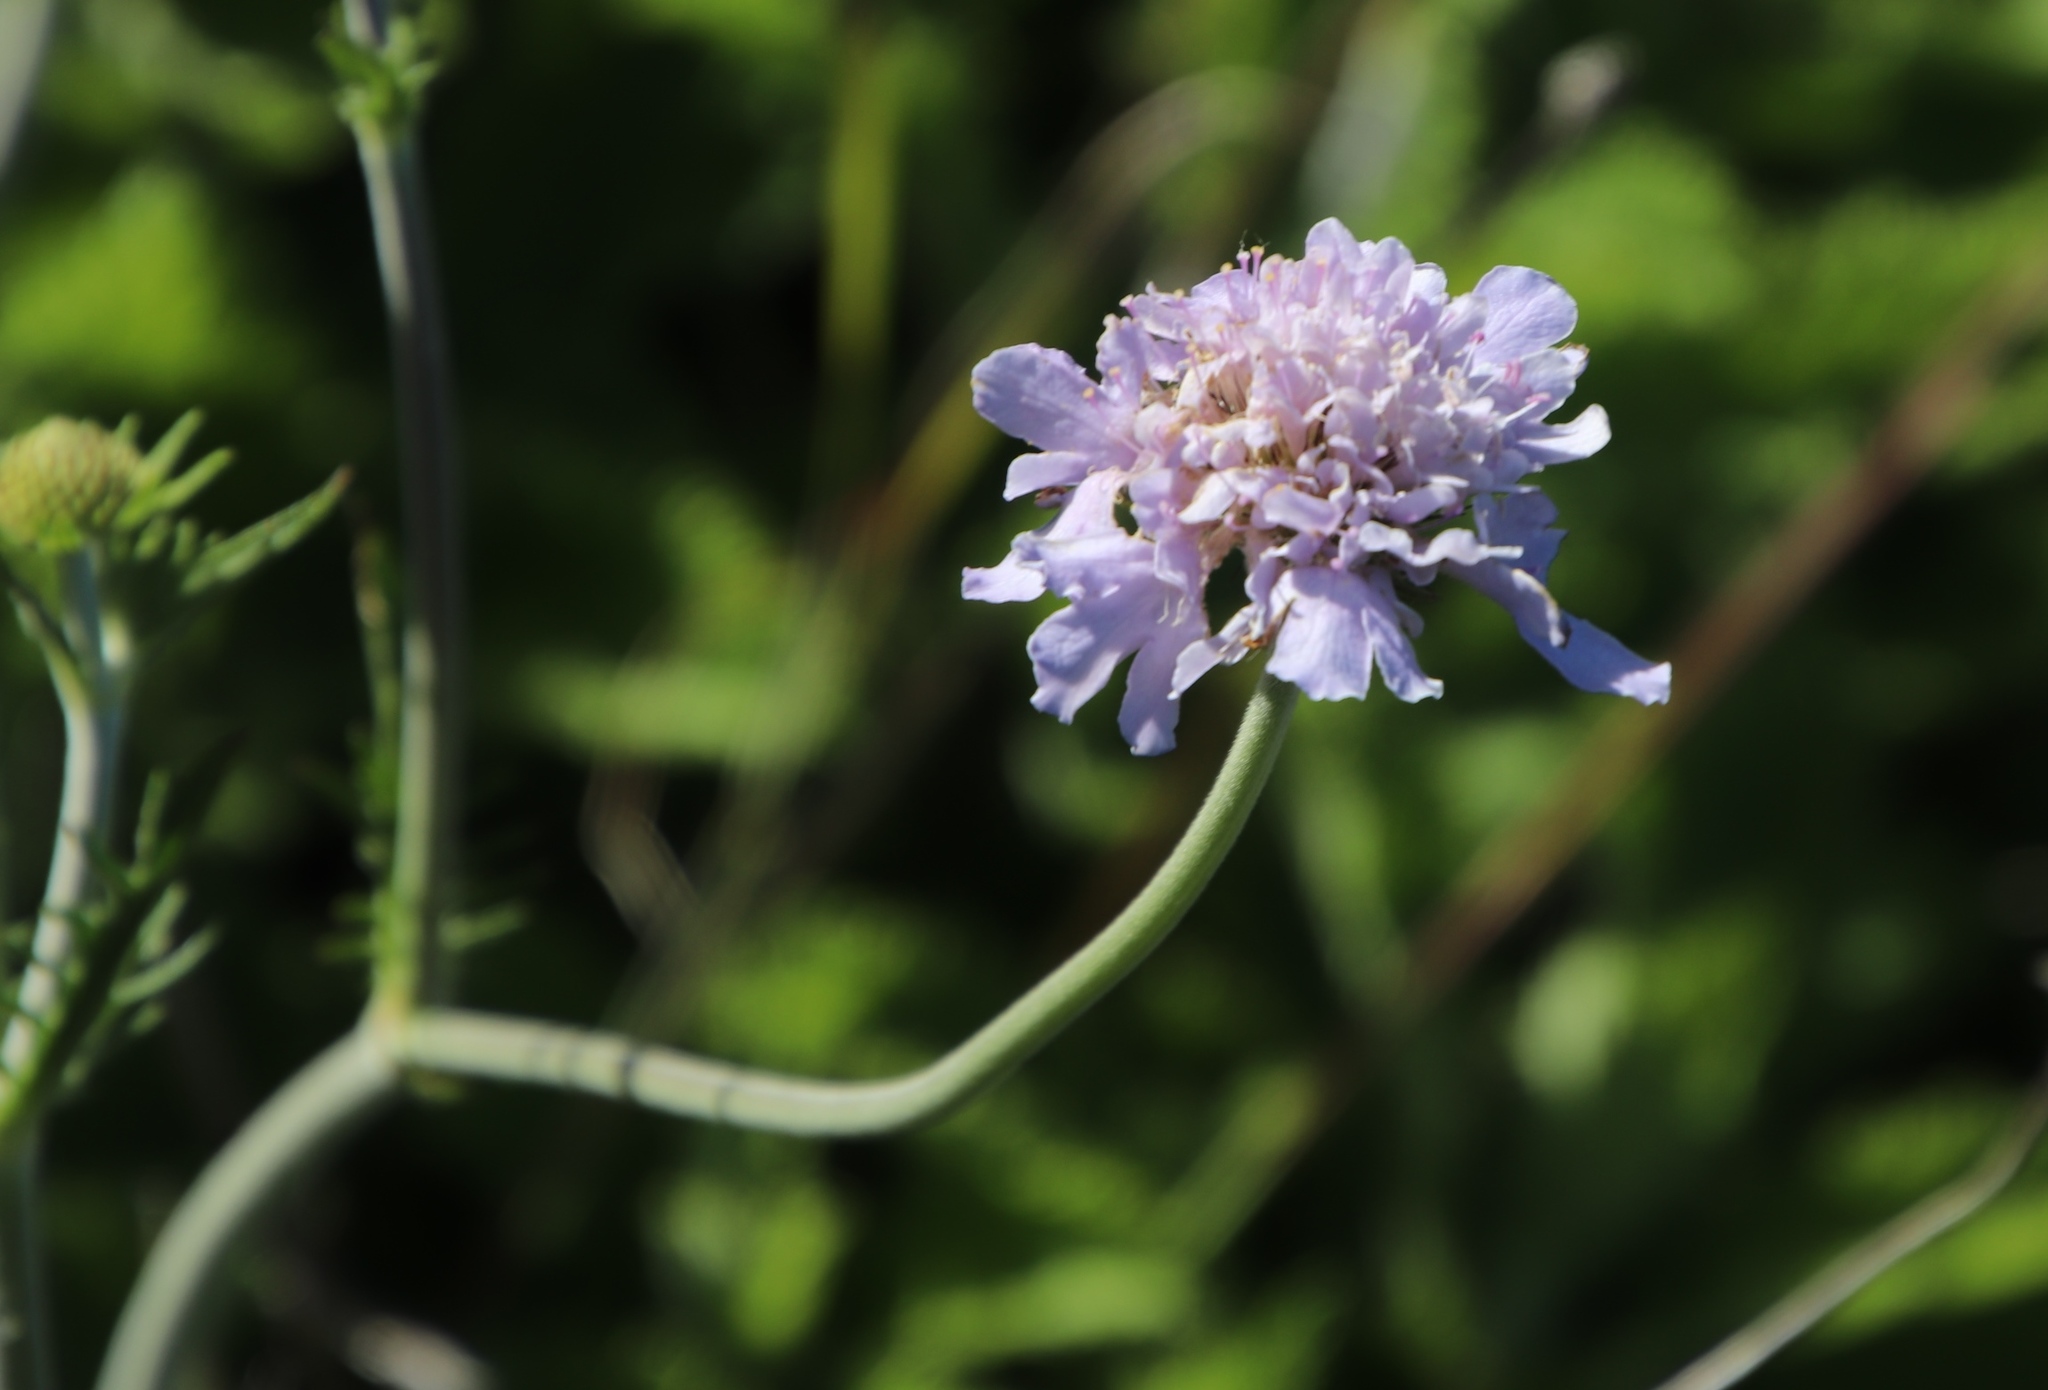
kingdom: Plantae
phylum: Tracheophyta
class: Magnoliopsida
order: Dipsacales
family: Caprifoliaceae
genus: Scabiosa
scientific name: Scabiosa africana
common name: Cape scabious
